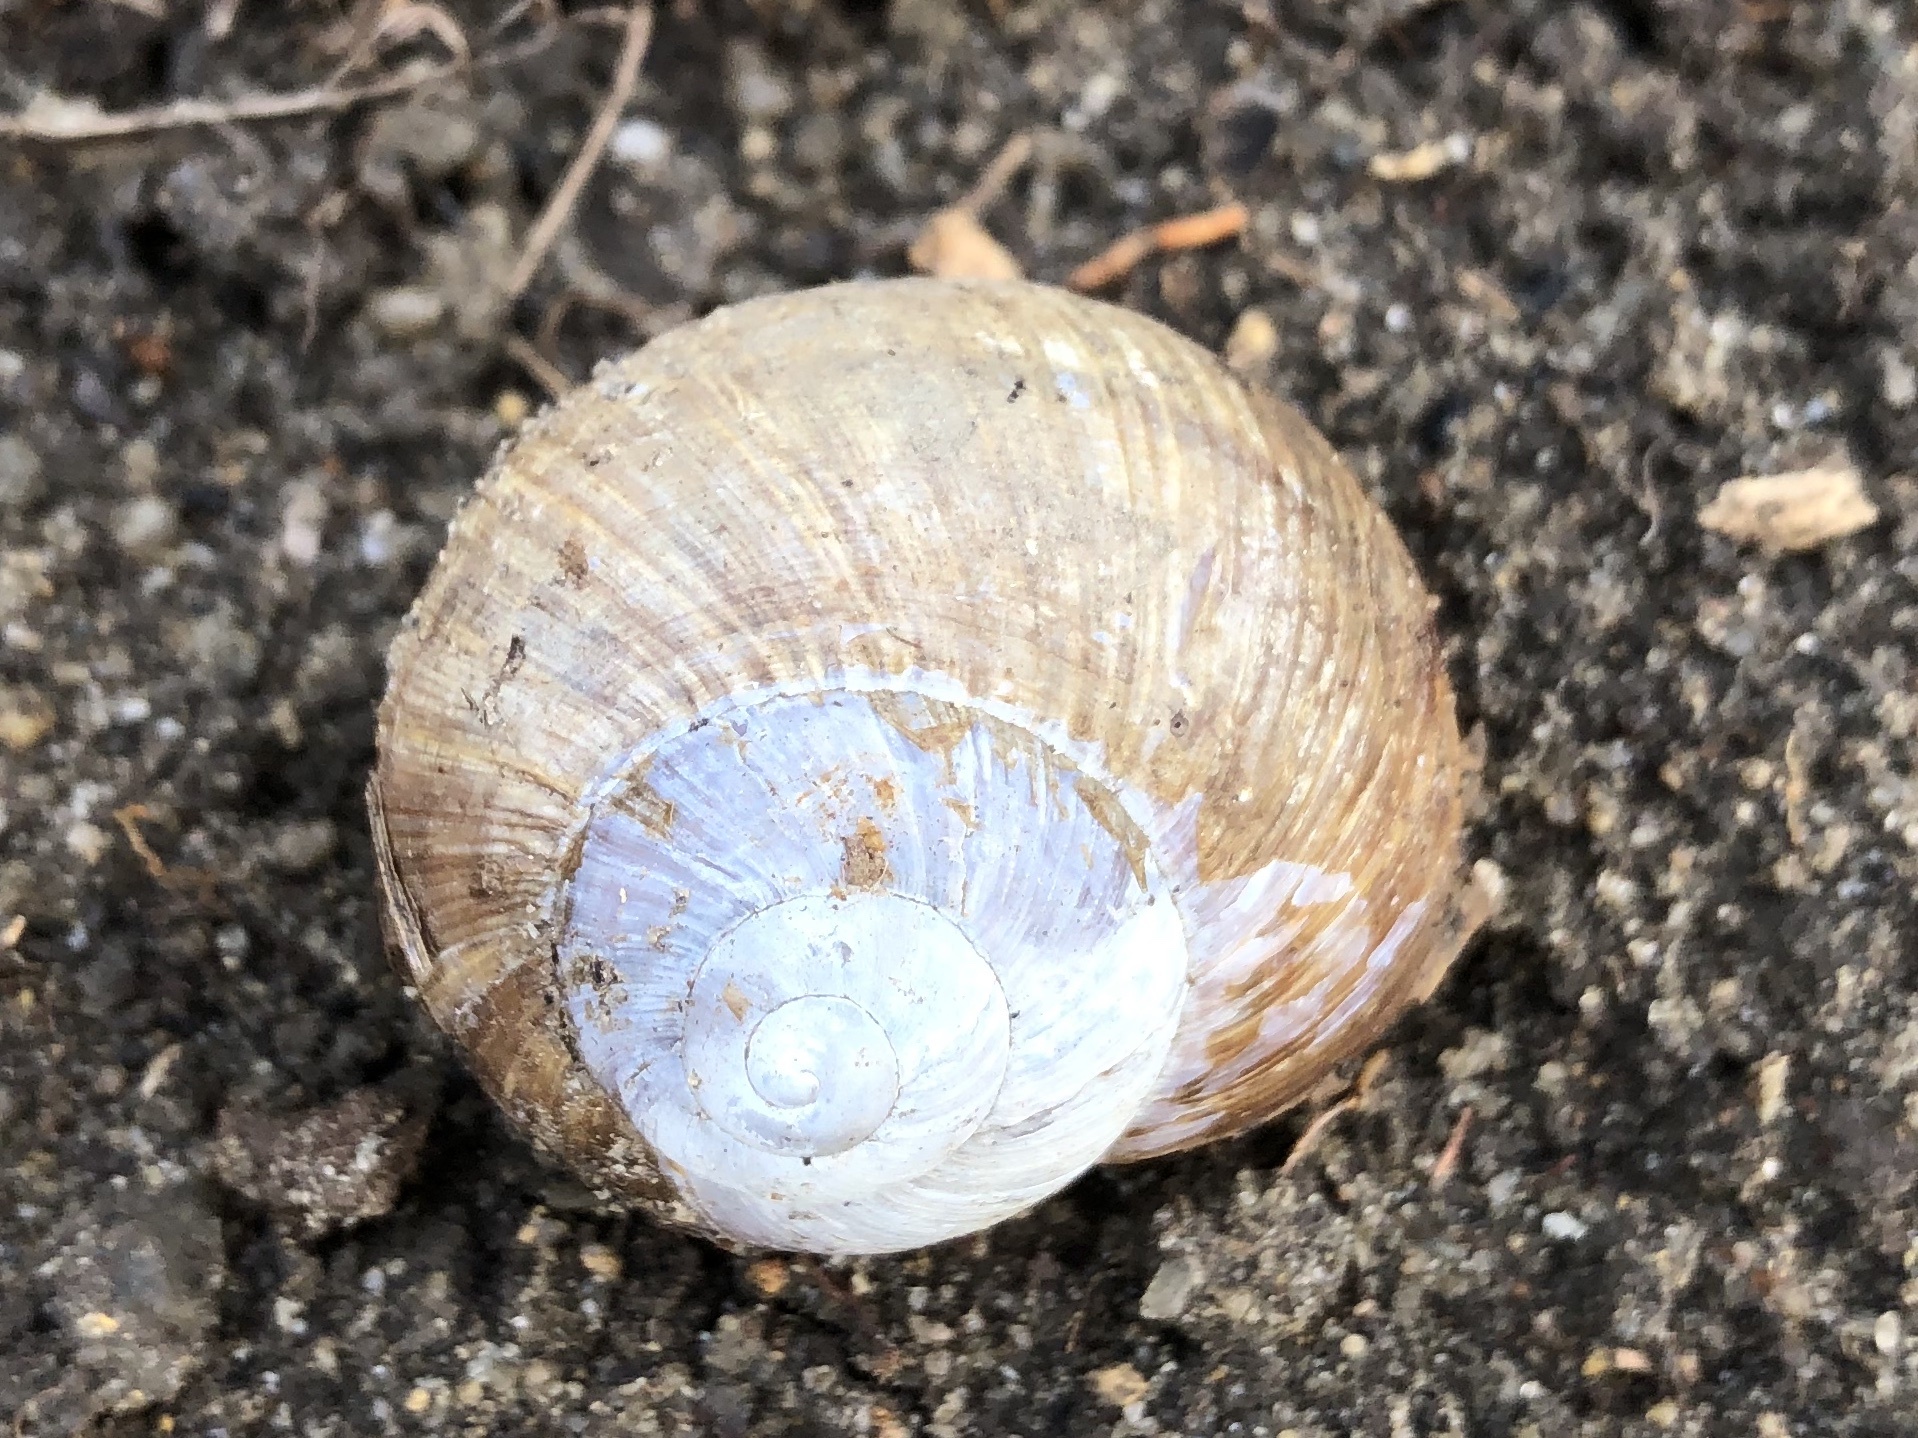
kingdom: Animalia
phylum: Mollusca
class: Gastropoda
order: Stylommatophora
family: Helicidae
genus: Helix
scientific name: Helix pomatia
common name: Roman snail
